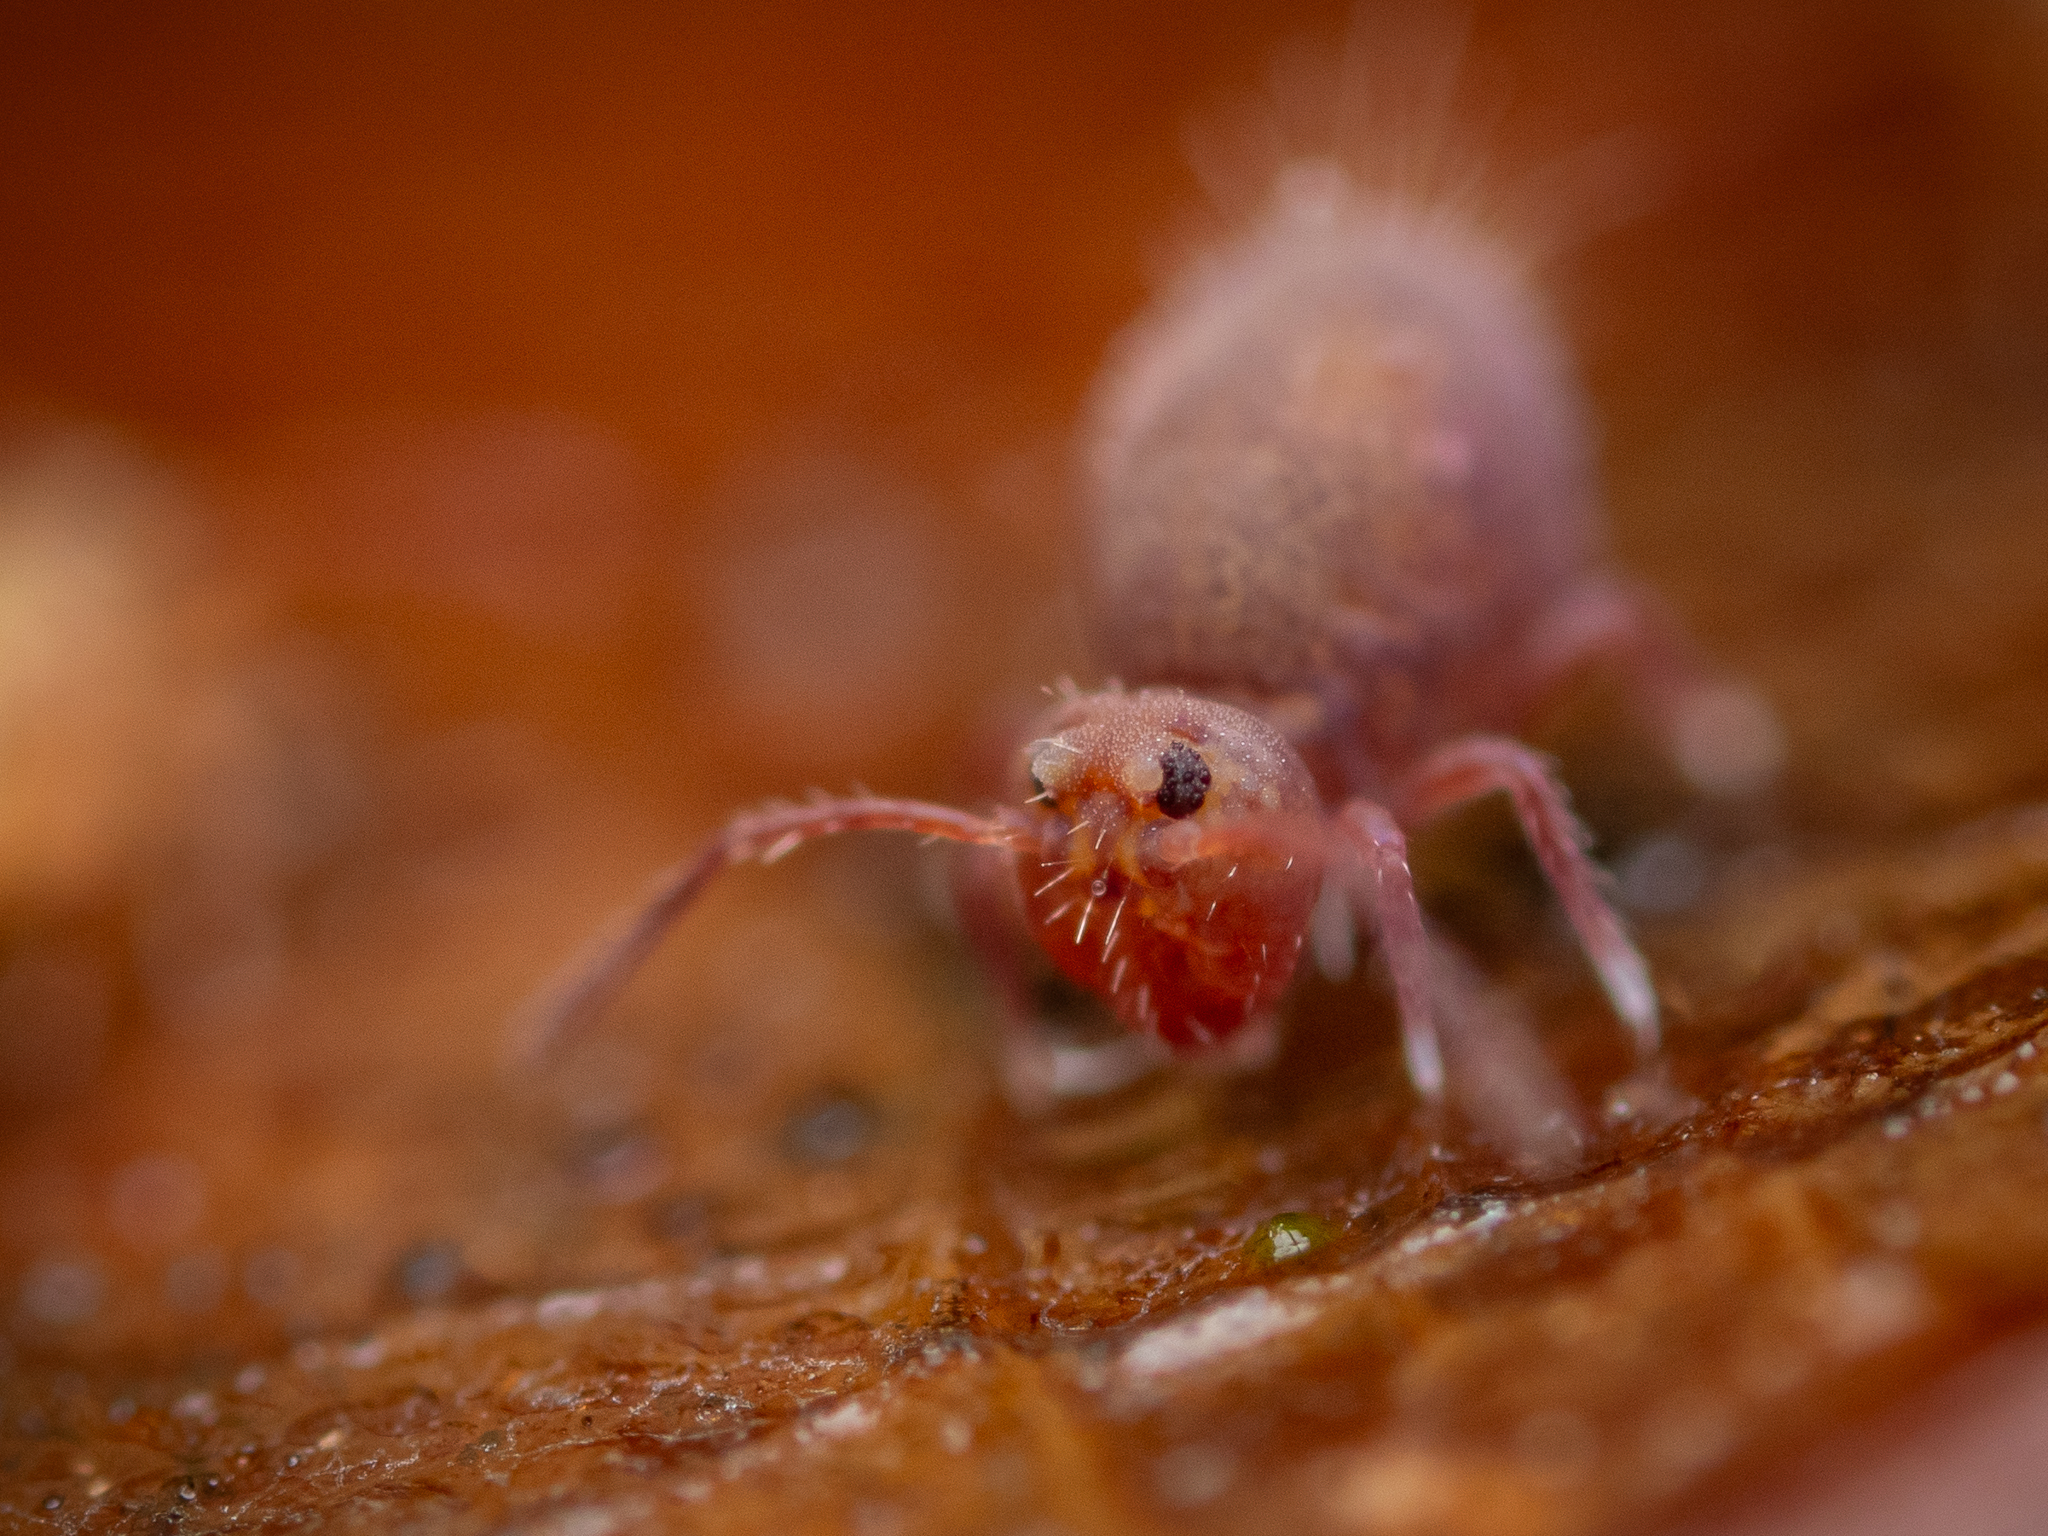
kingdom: Animalia
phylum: Arthropoda
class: Collembola
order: Symphypleona
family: Dicyrtomidae
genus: Dicyrtoma
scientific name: Dicyrtoma fusca
